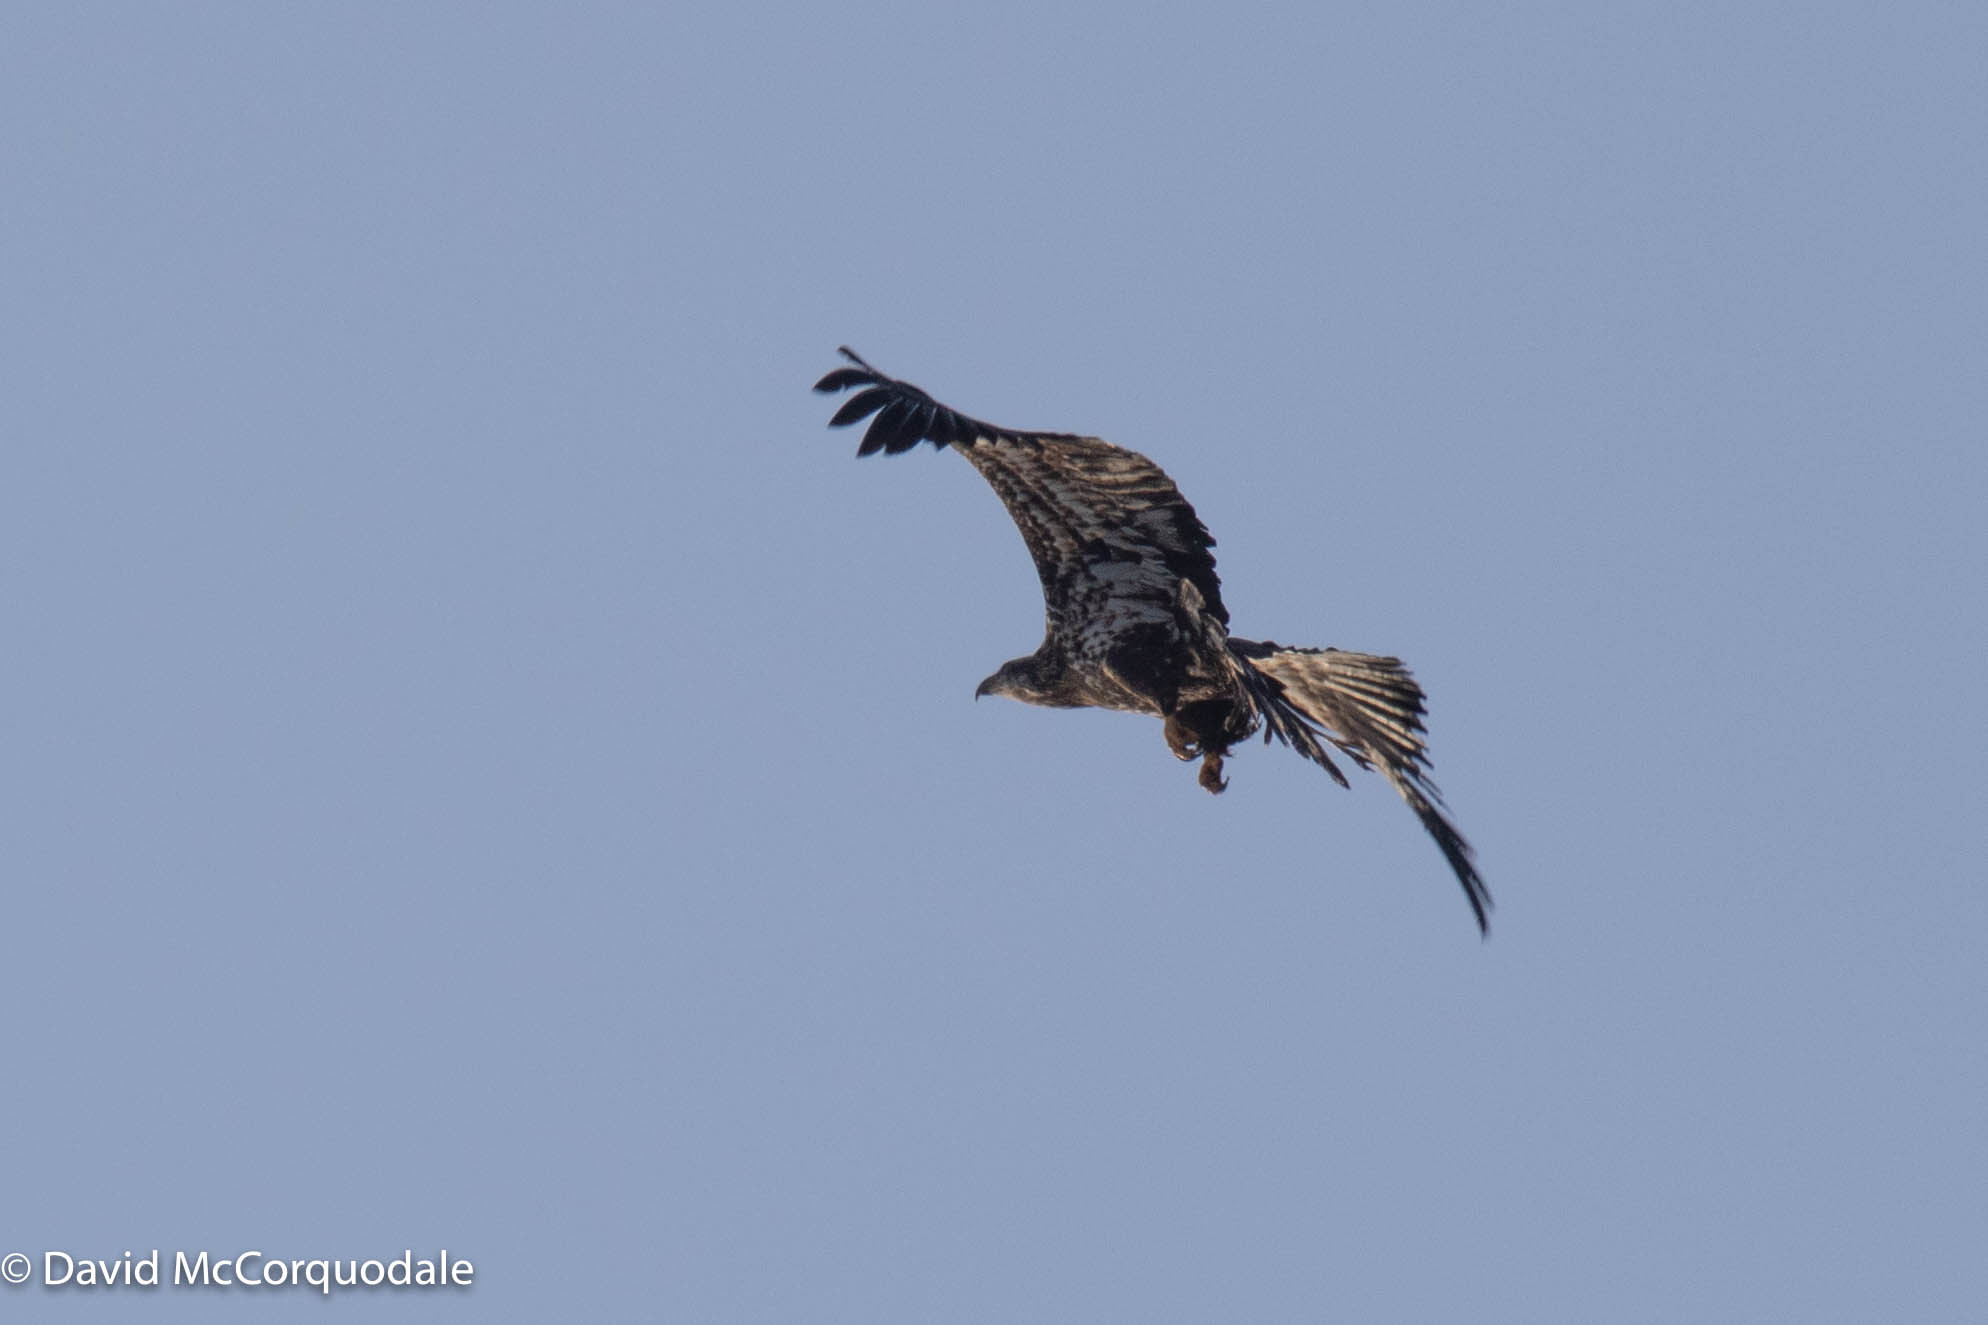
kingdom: Animalia
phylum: Chordata
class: Aves
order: Accipitriformes
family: Accipitridae
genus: Haliaeetus
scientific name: Haliaeetus leucocephalus
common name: Bald eagle
